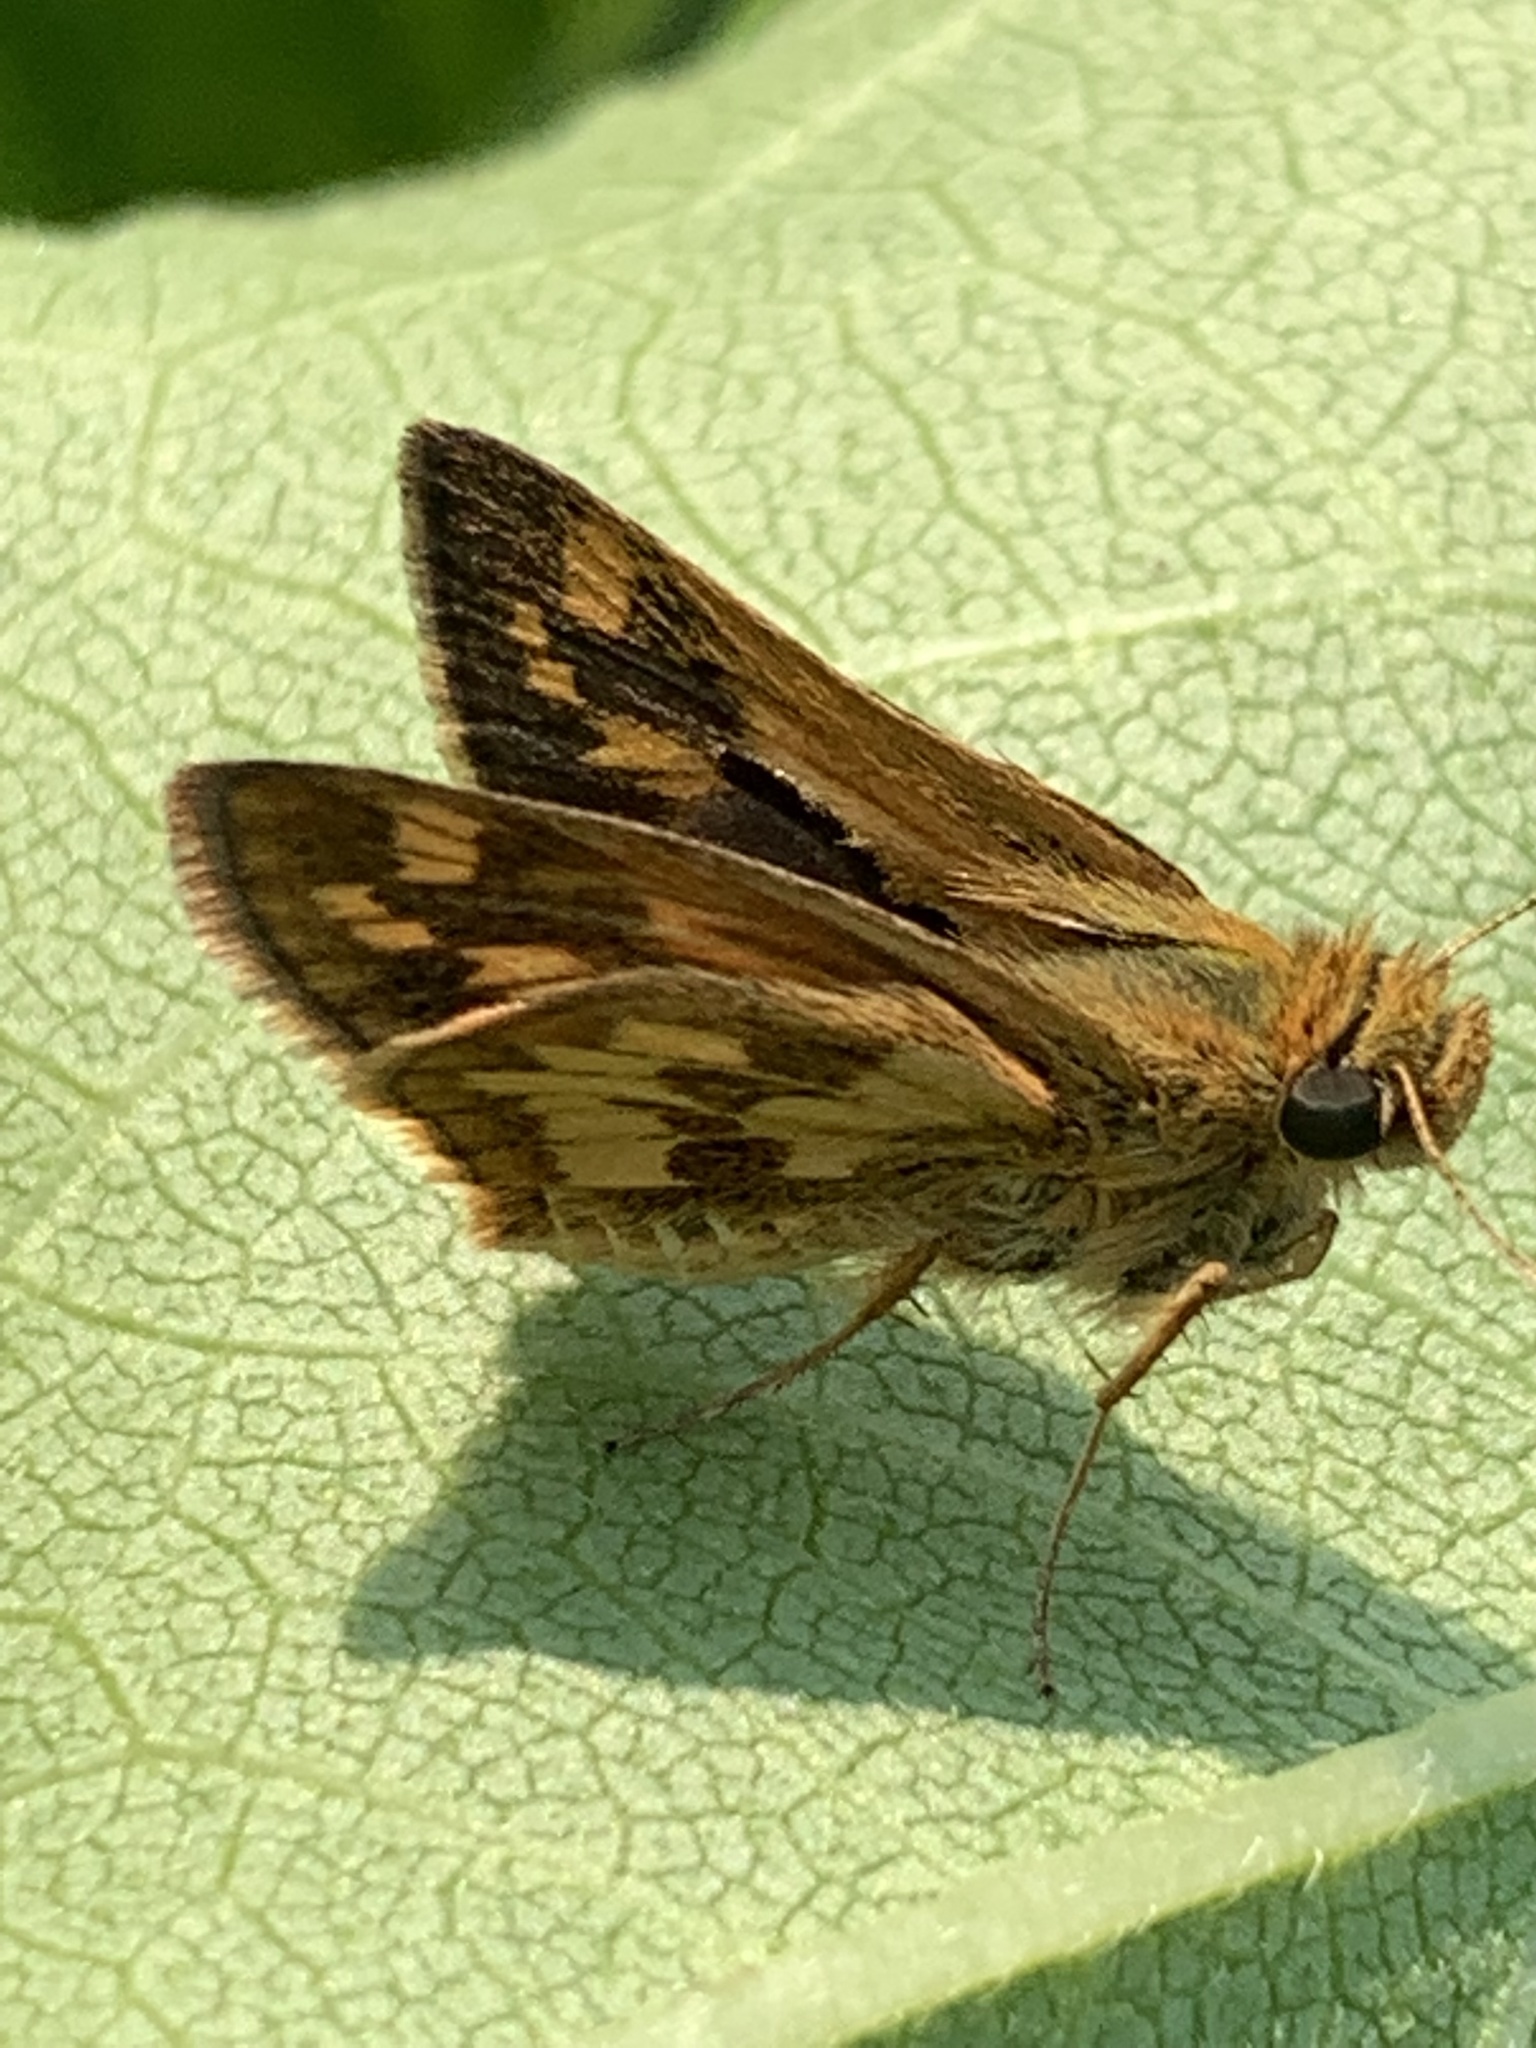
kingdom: Animalia
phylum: Arthropoda
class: Insecta
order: Lepidoptera
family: Hesperiidae
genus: Polites
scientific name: Polites coras
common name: Peck's skipper
